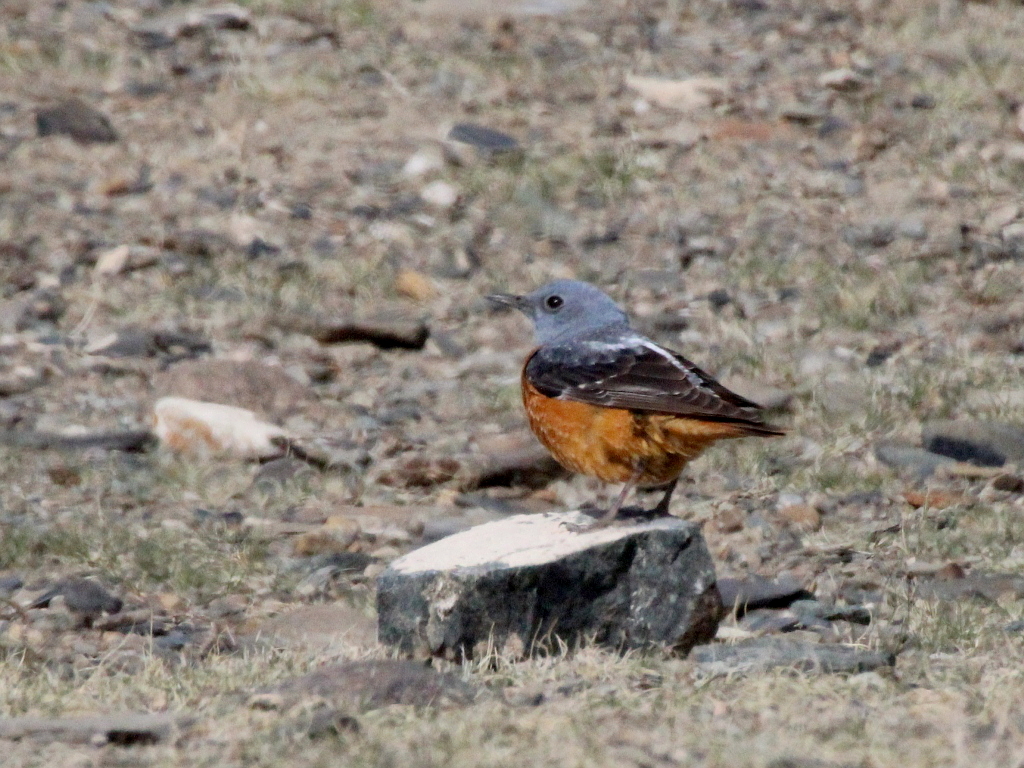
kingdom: Animalia
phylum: Chordata
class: Aves
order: Passeriformes
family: Muscicapidae
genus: Monticola
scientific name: Monticola saxatilis
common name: Rufous-tailed rock thrush
